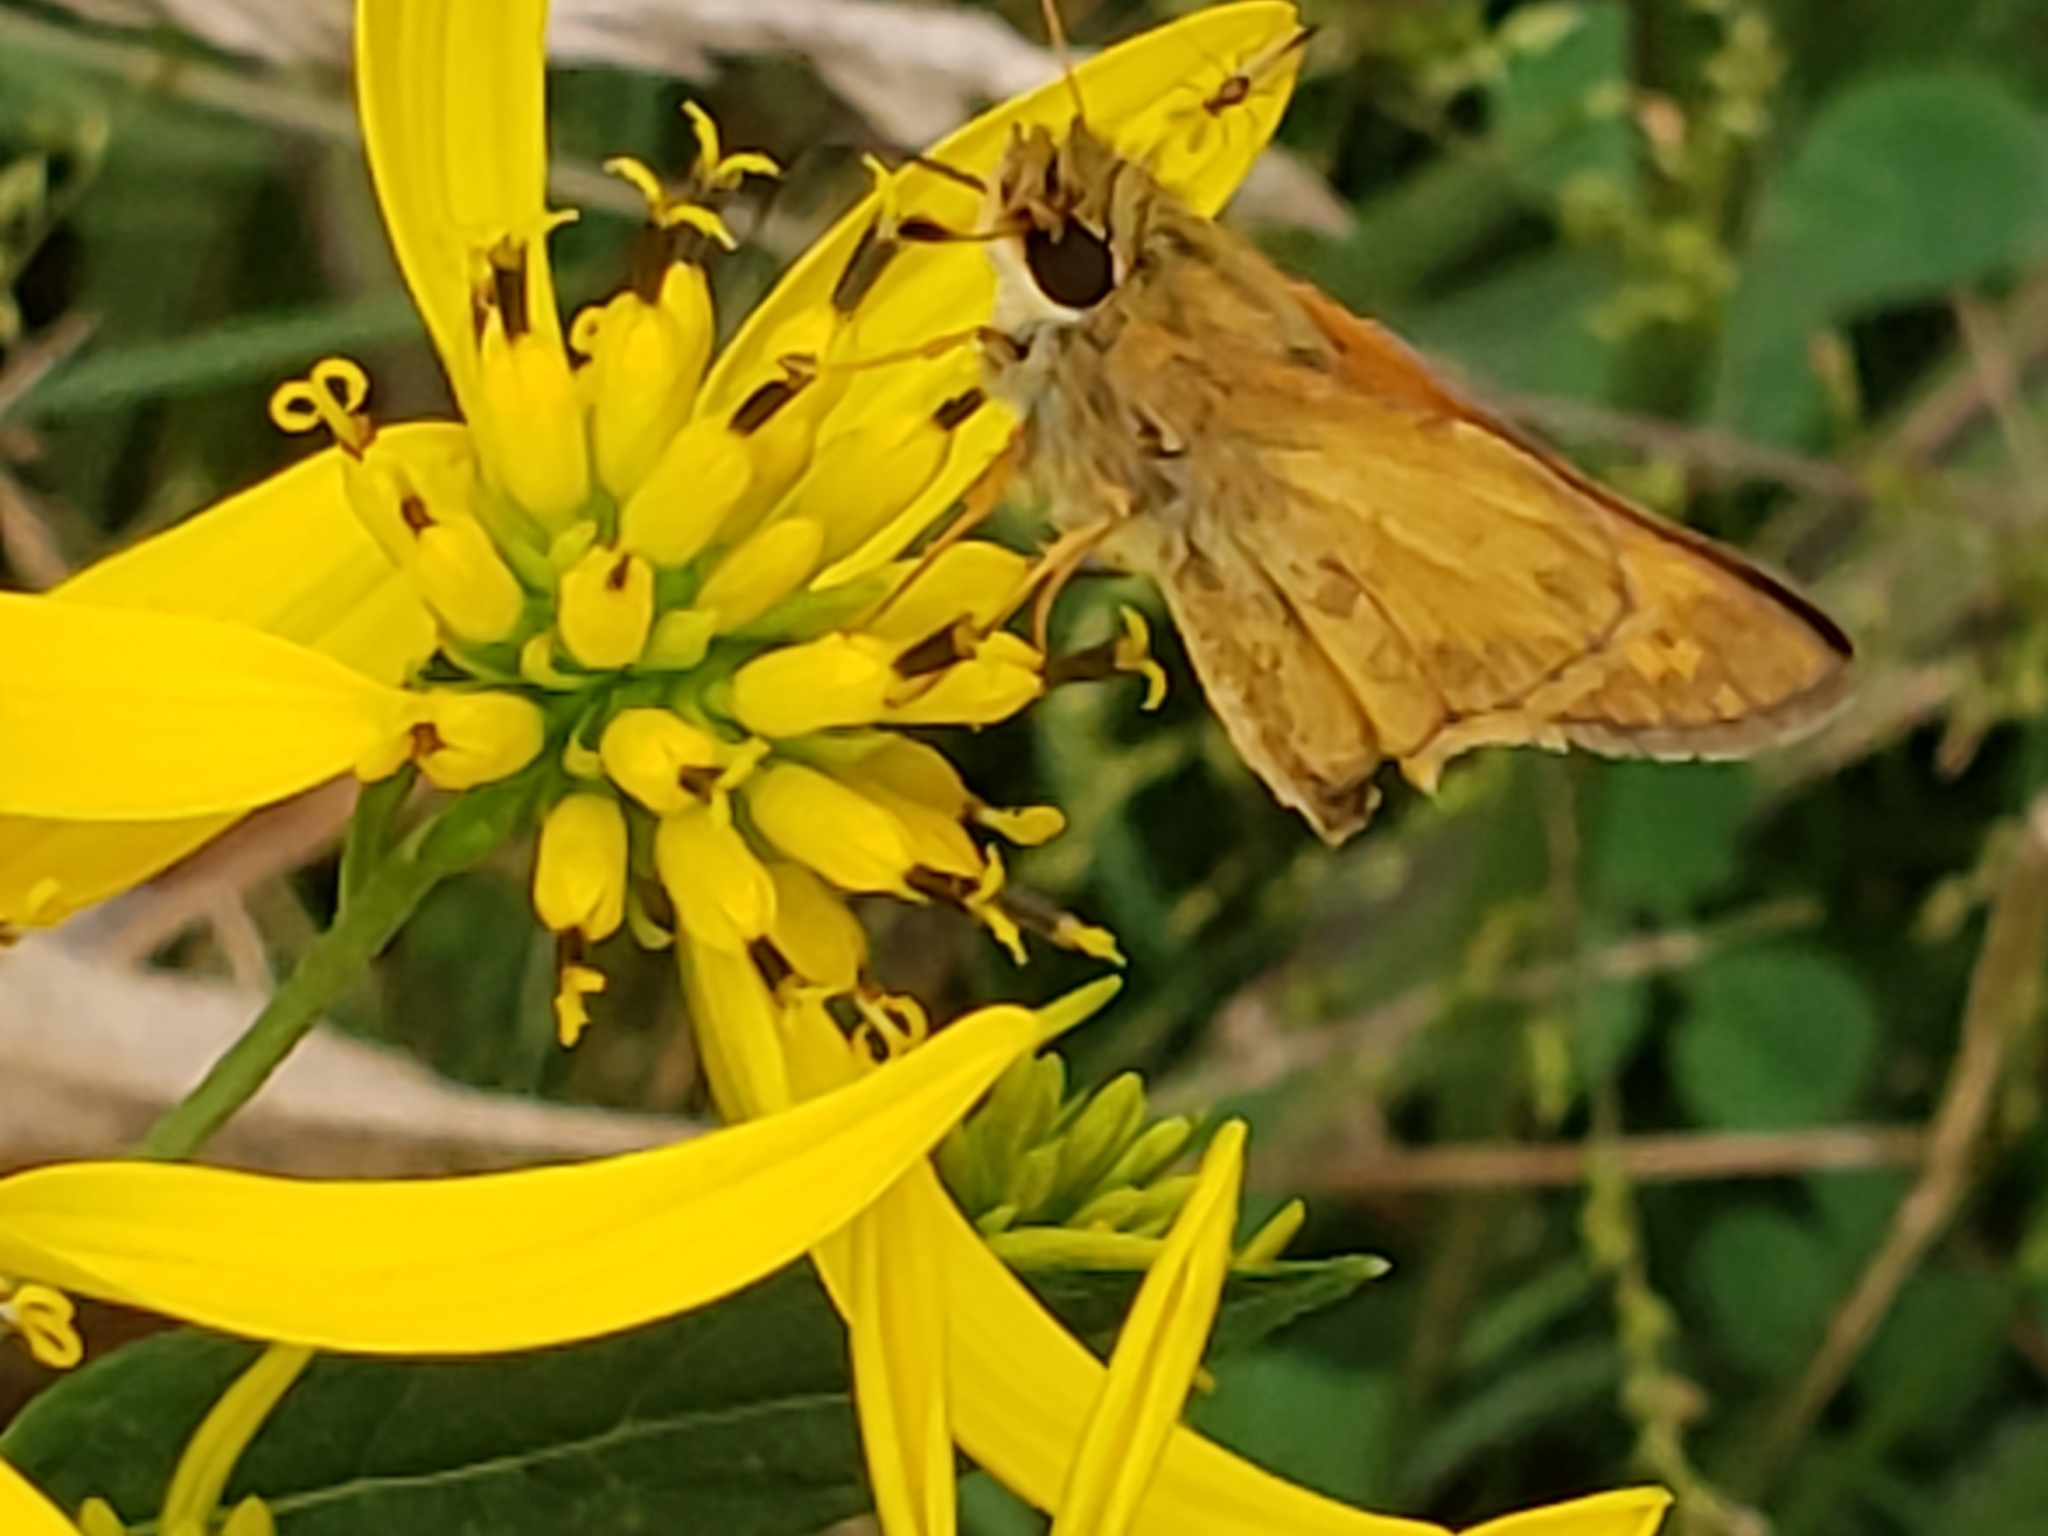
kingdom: Animalia
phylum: Arthropoda
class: Insecta
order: Lepidoptera
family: Hesperiidae
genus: Atalopedes
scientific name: Atalopedes
